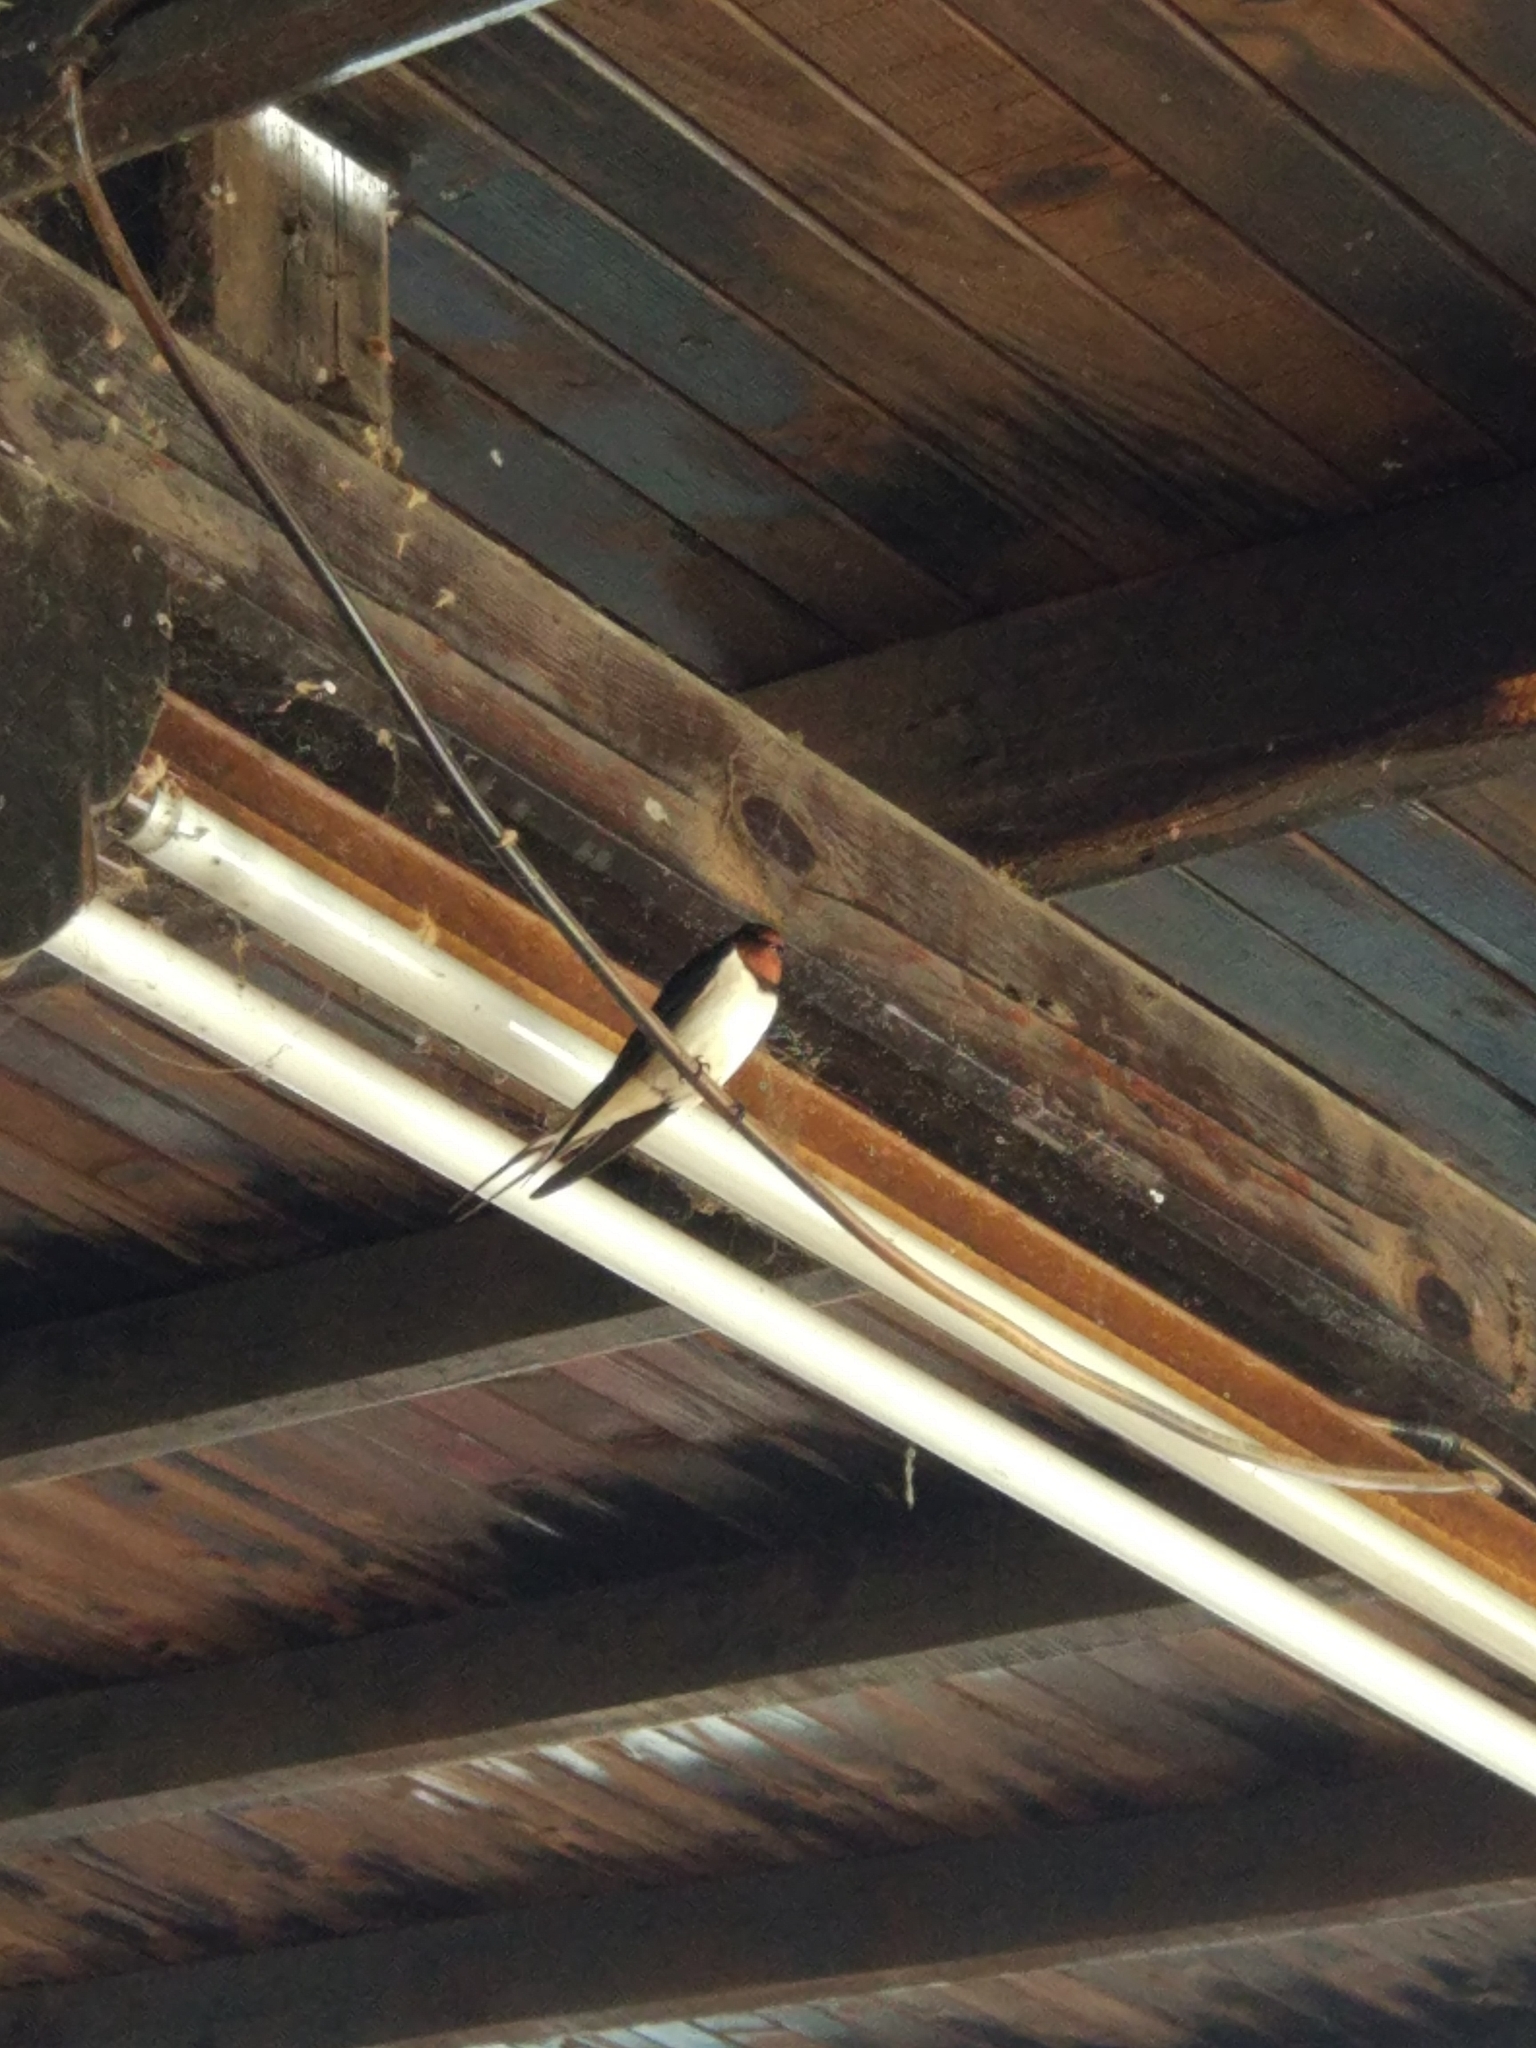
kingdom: Animalia
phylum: Chordata
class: Aves
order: Passeriformes
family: Hirundinidae
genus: Hirundo
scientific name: Hirundo rustica
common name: Barn swallow
